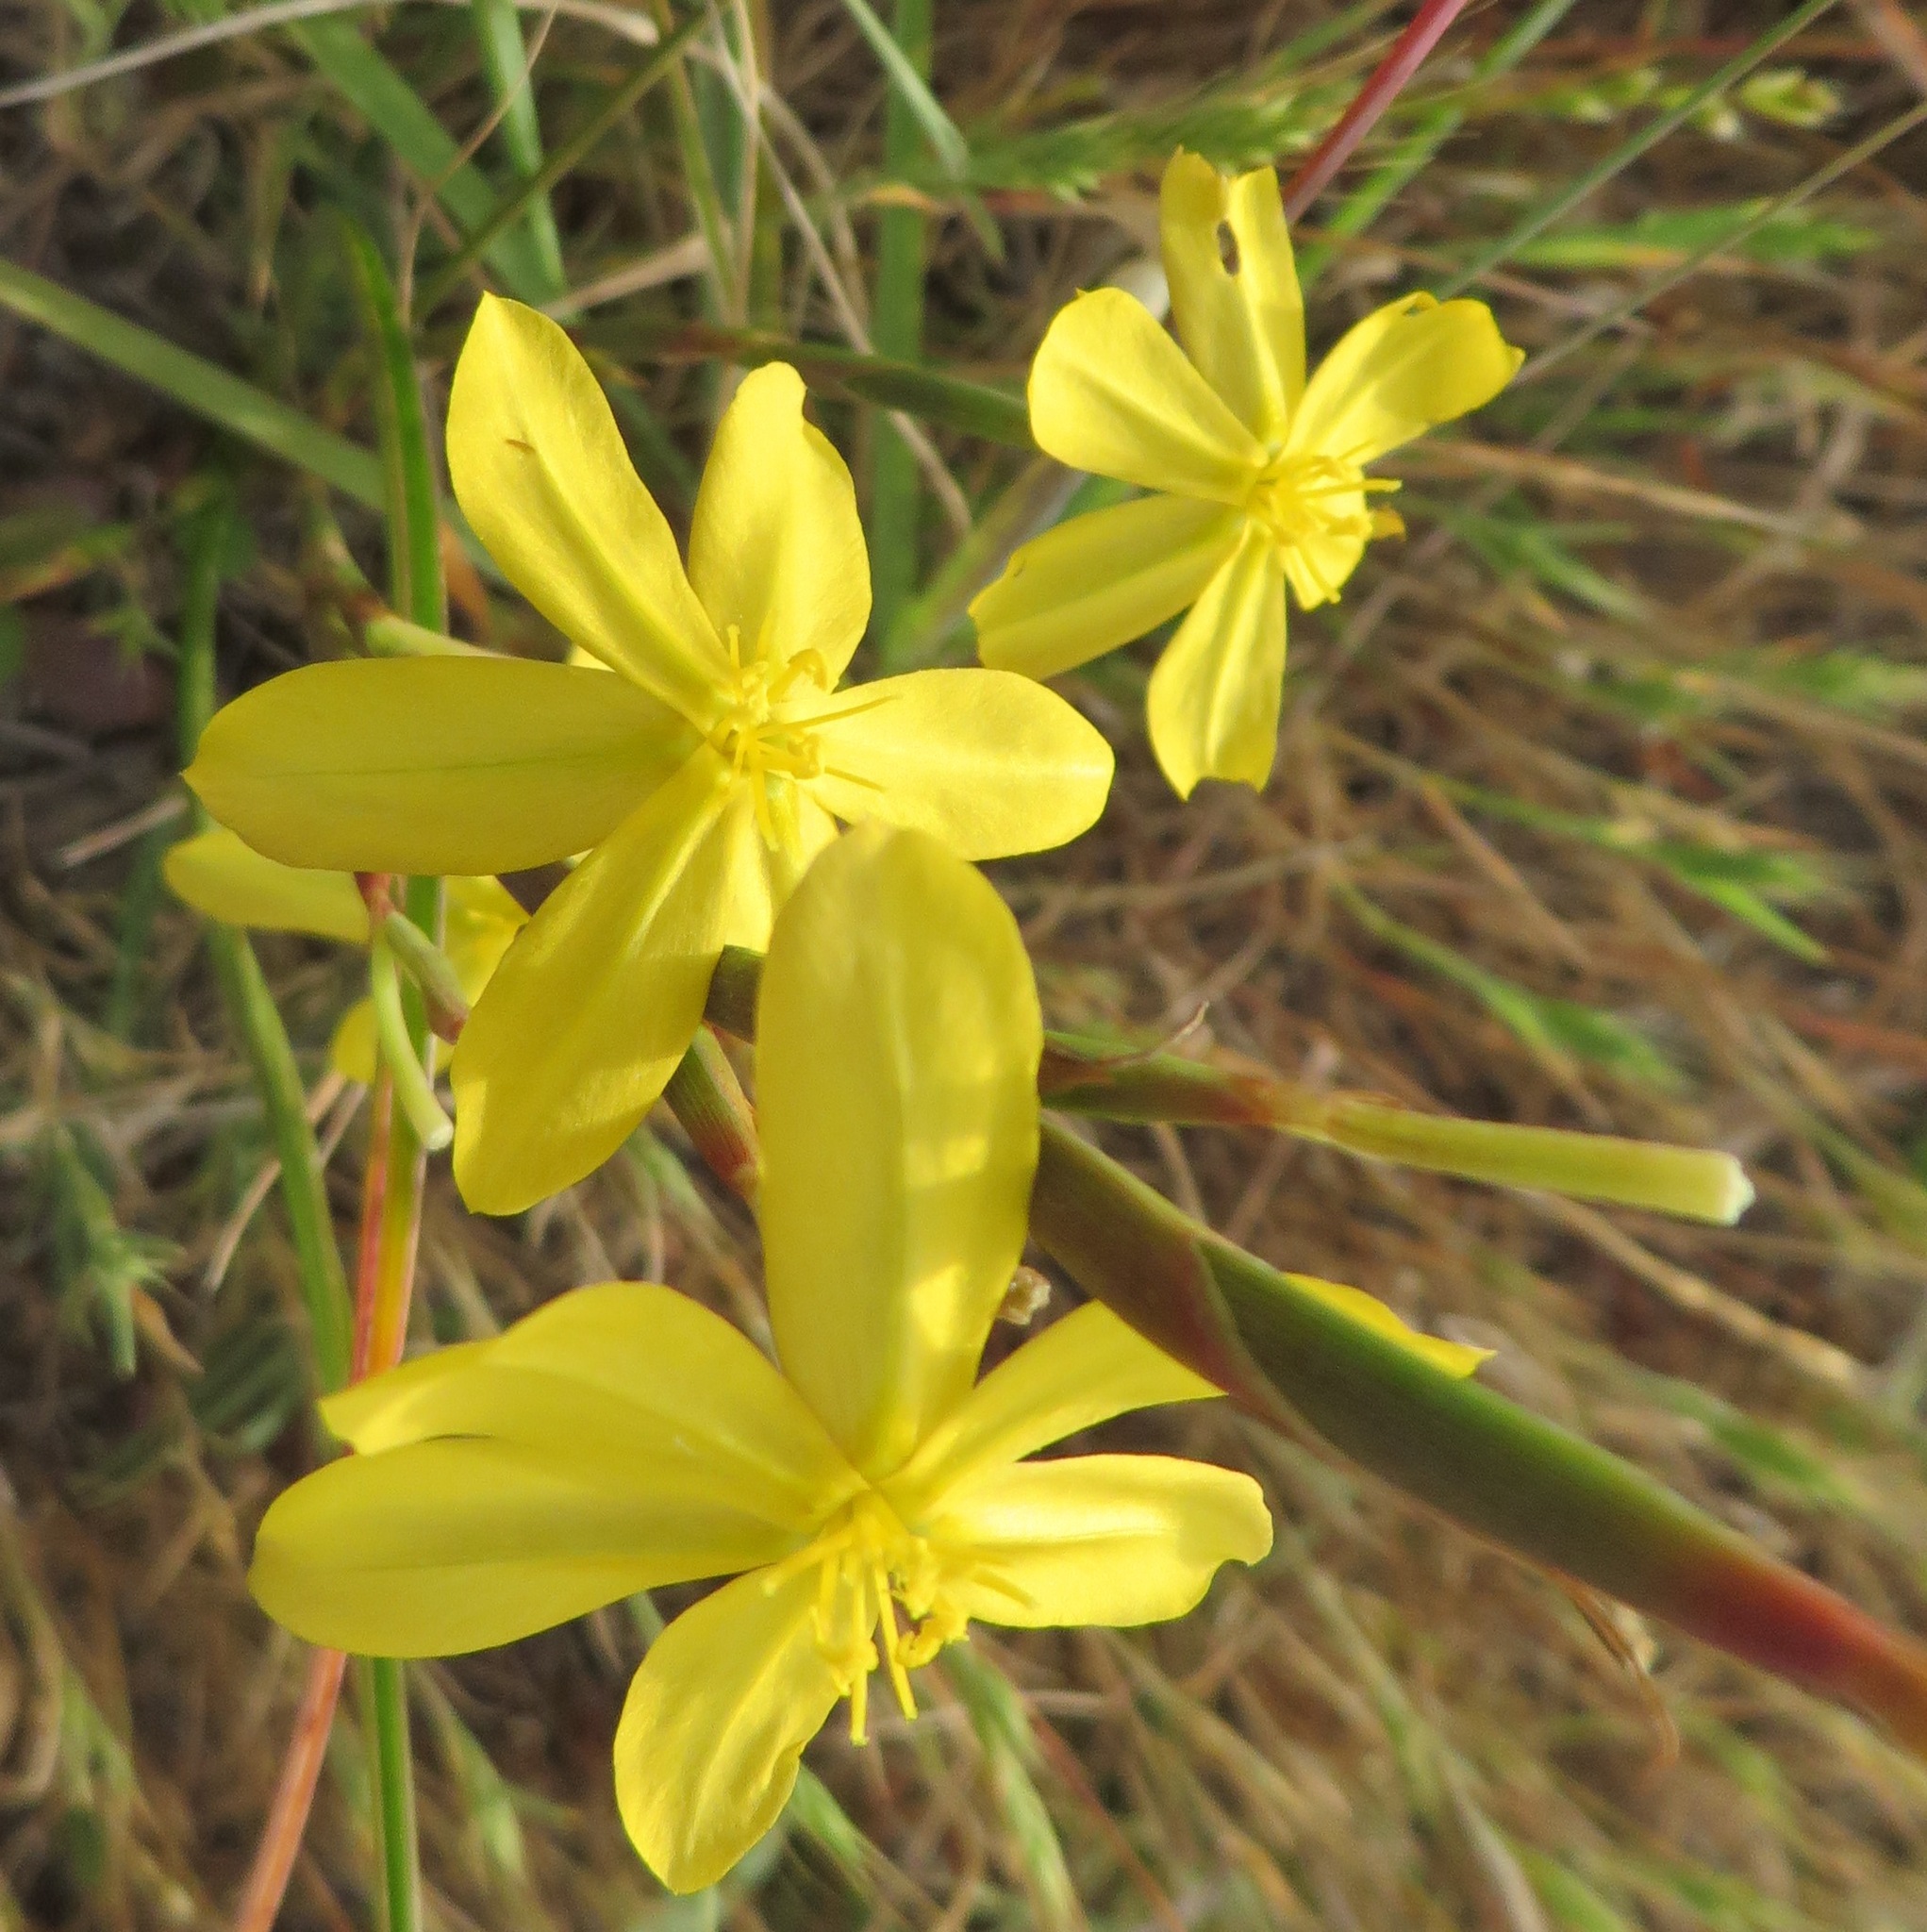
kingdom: Plantae
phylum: Tracheophyta
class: Liliopsida
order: Asparagales
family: Iridaceae
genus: Moraea
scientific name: Moraea lewisiae
